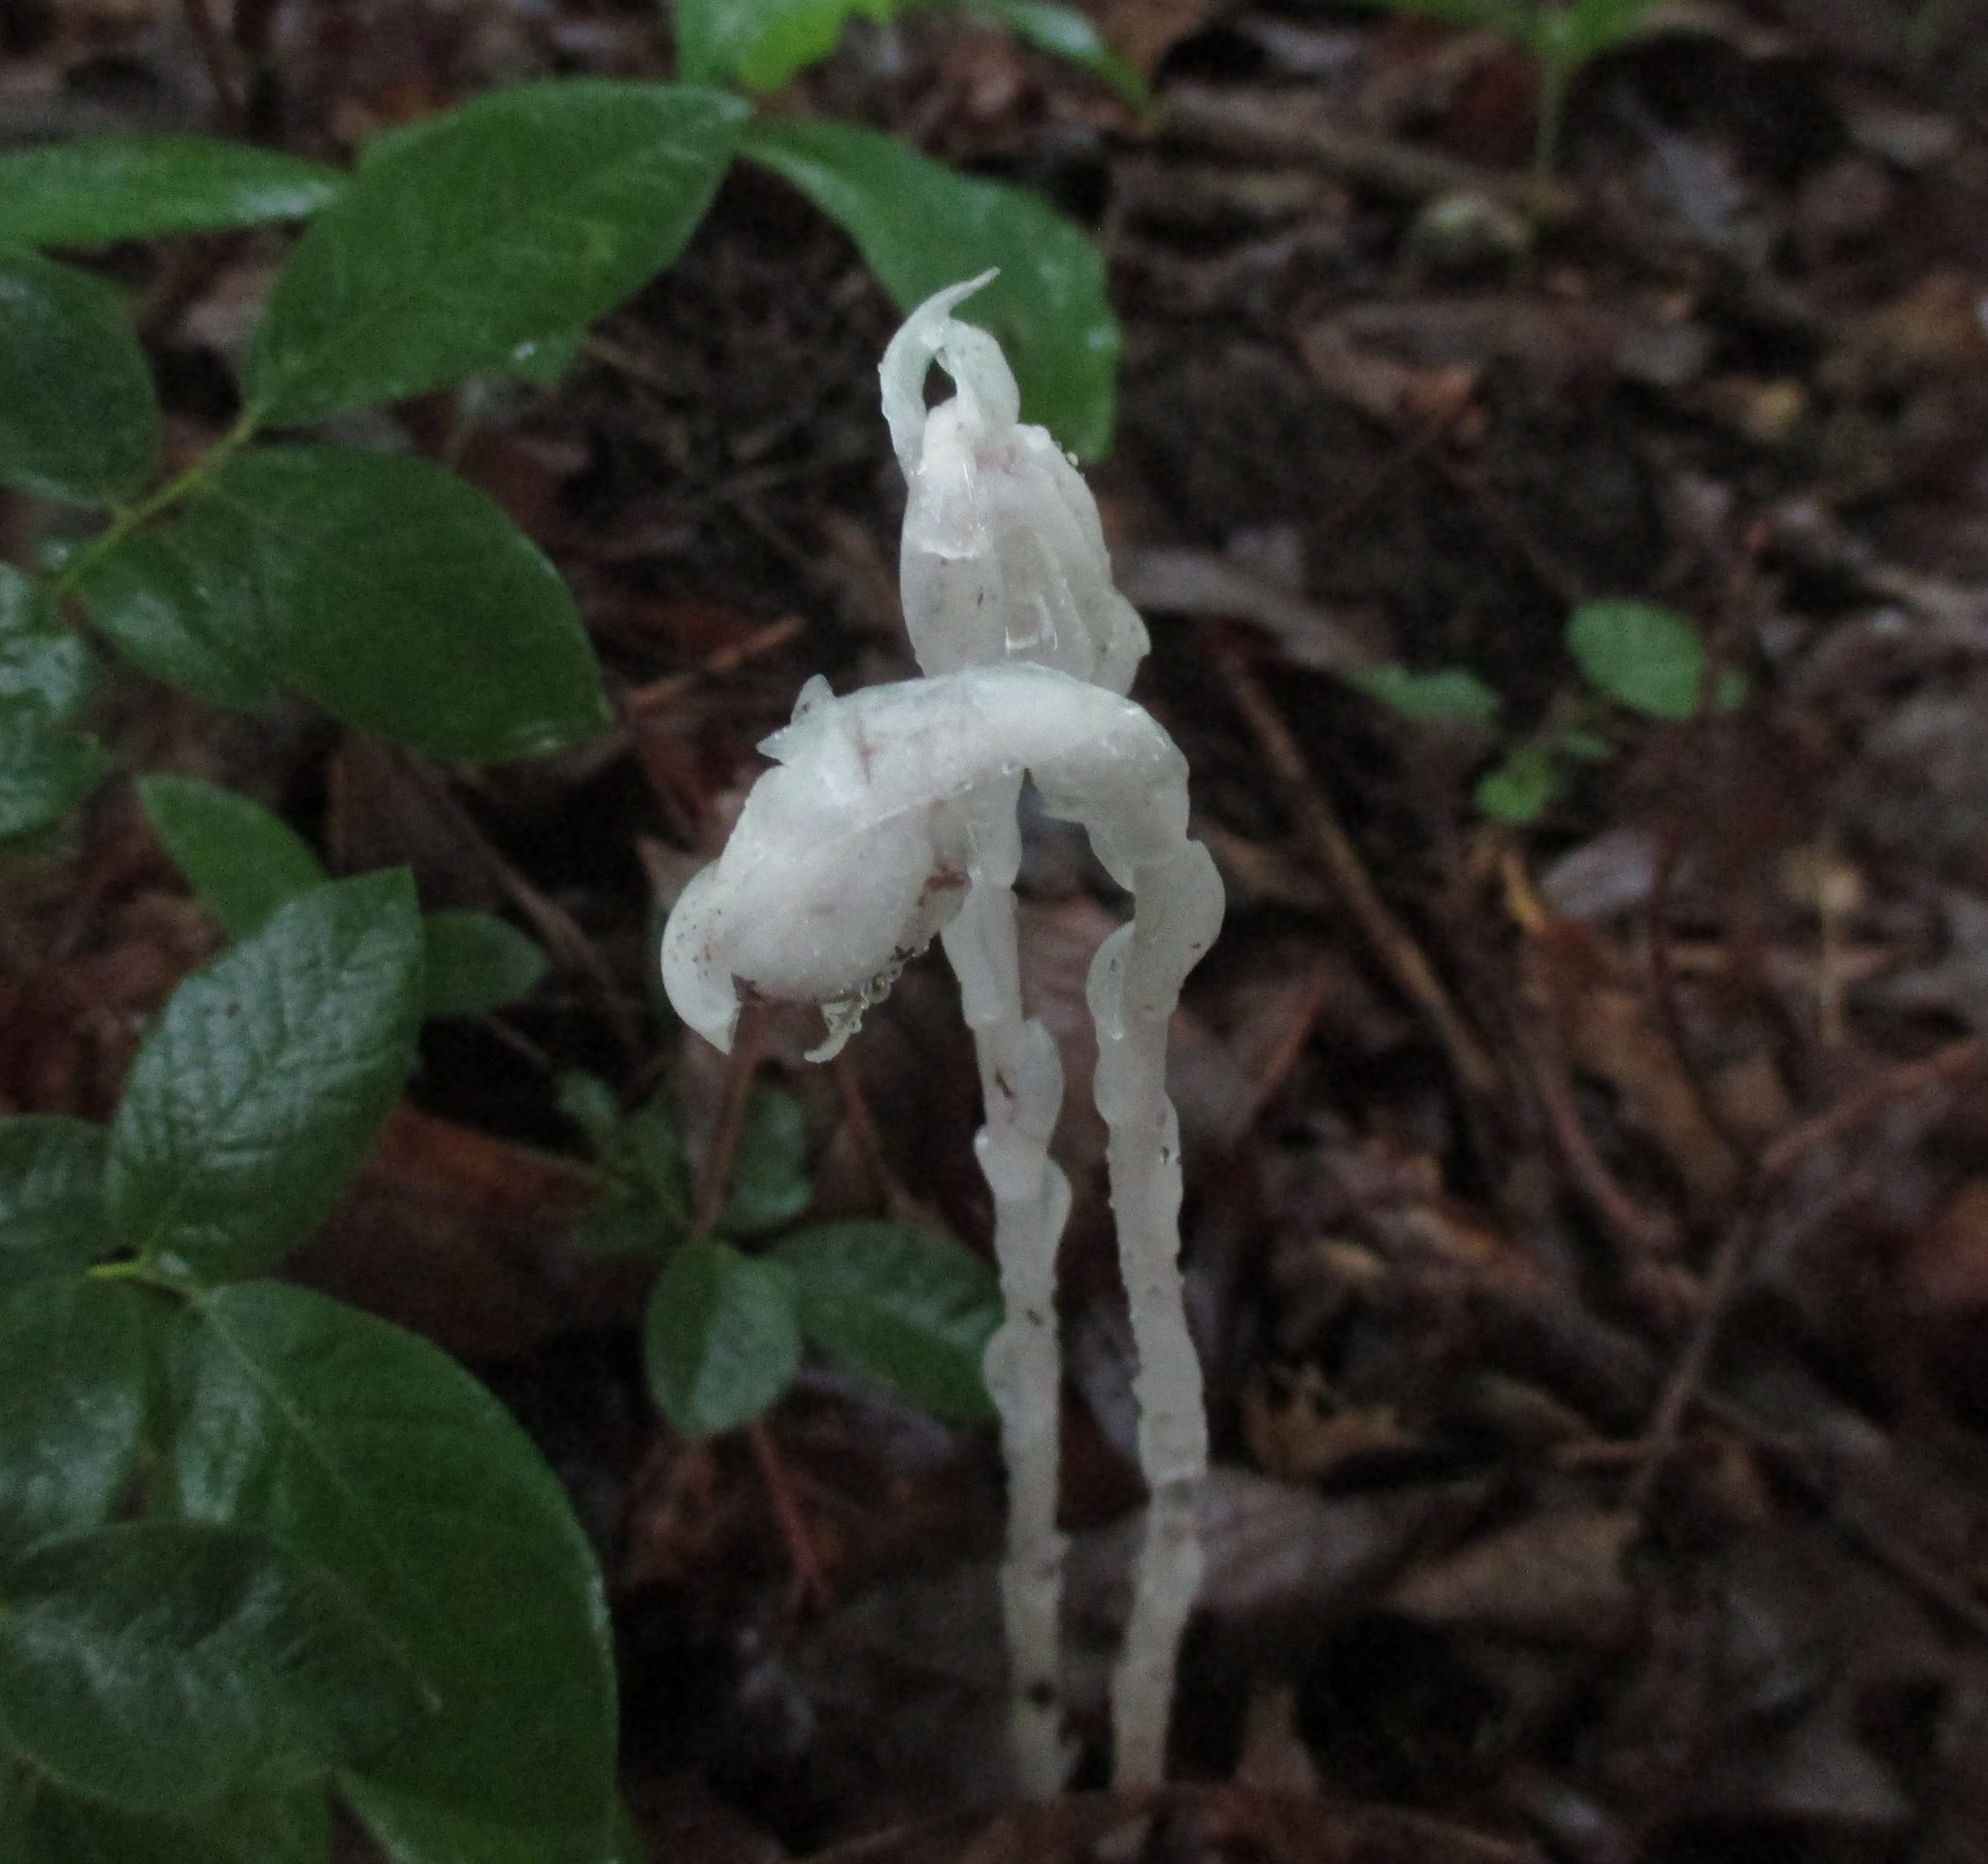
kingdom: Plantae
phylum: Tracheophyta
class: Magnoliopsida
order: Ericales
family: Ericaceae
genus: Monotropa
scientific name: Monotropa uniflora
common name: Convulsion root
